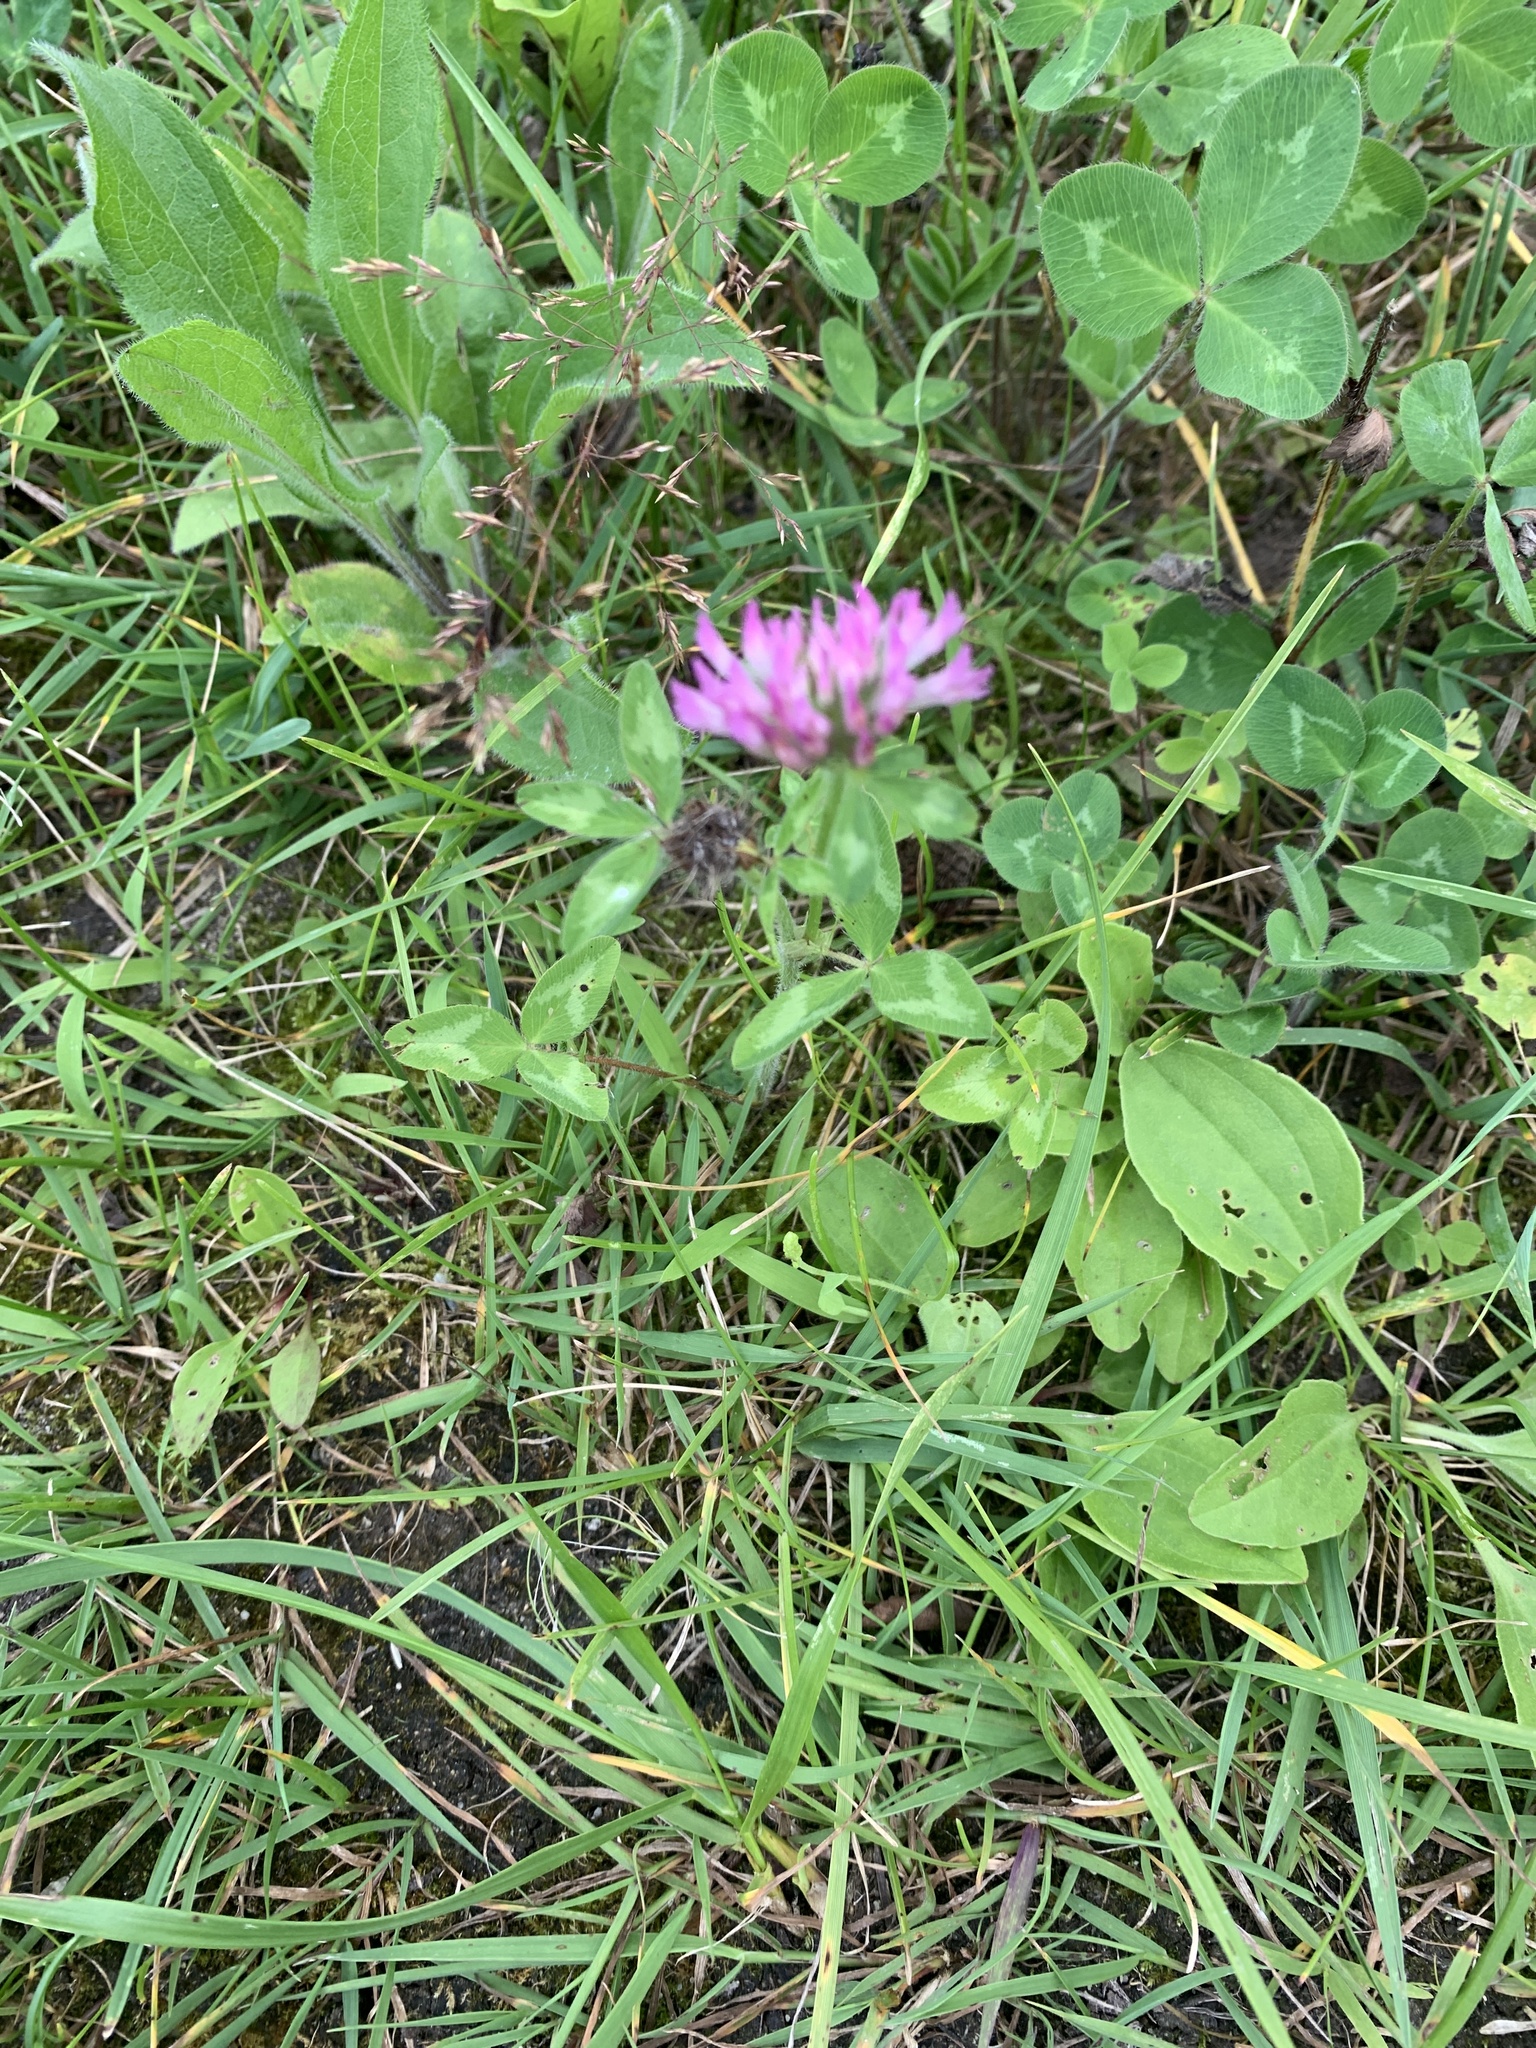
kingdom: Plantae
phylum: Tracheophyta
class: Magnoliopsida
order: Fabales
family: Fabaceae
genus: Trifolium
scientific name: Trifolium pratense
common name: Red clover
